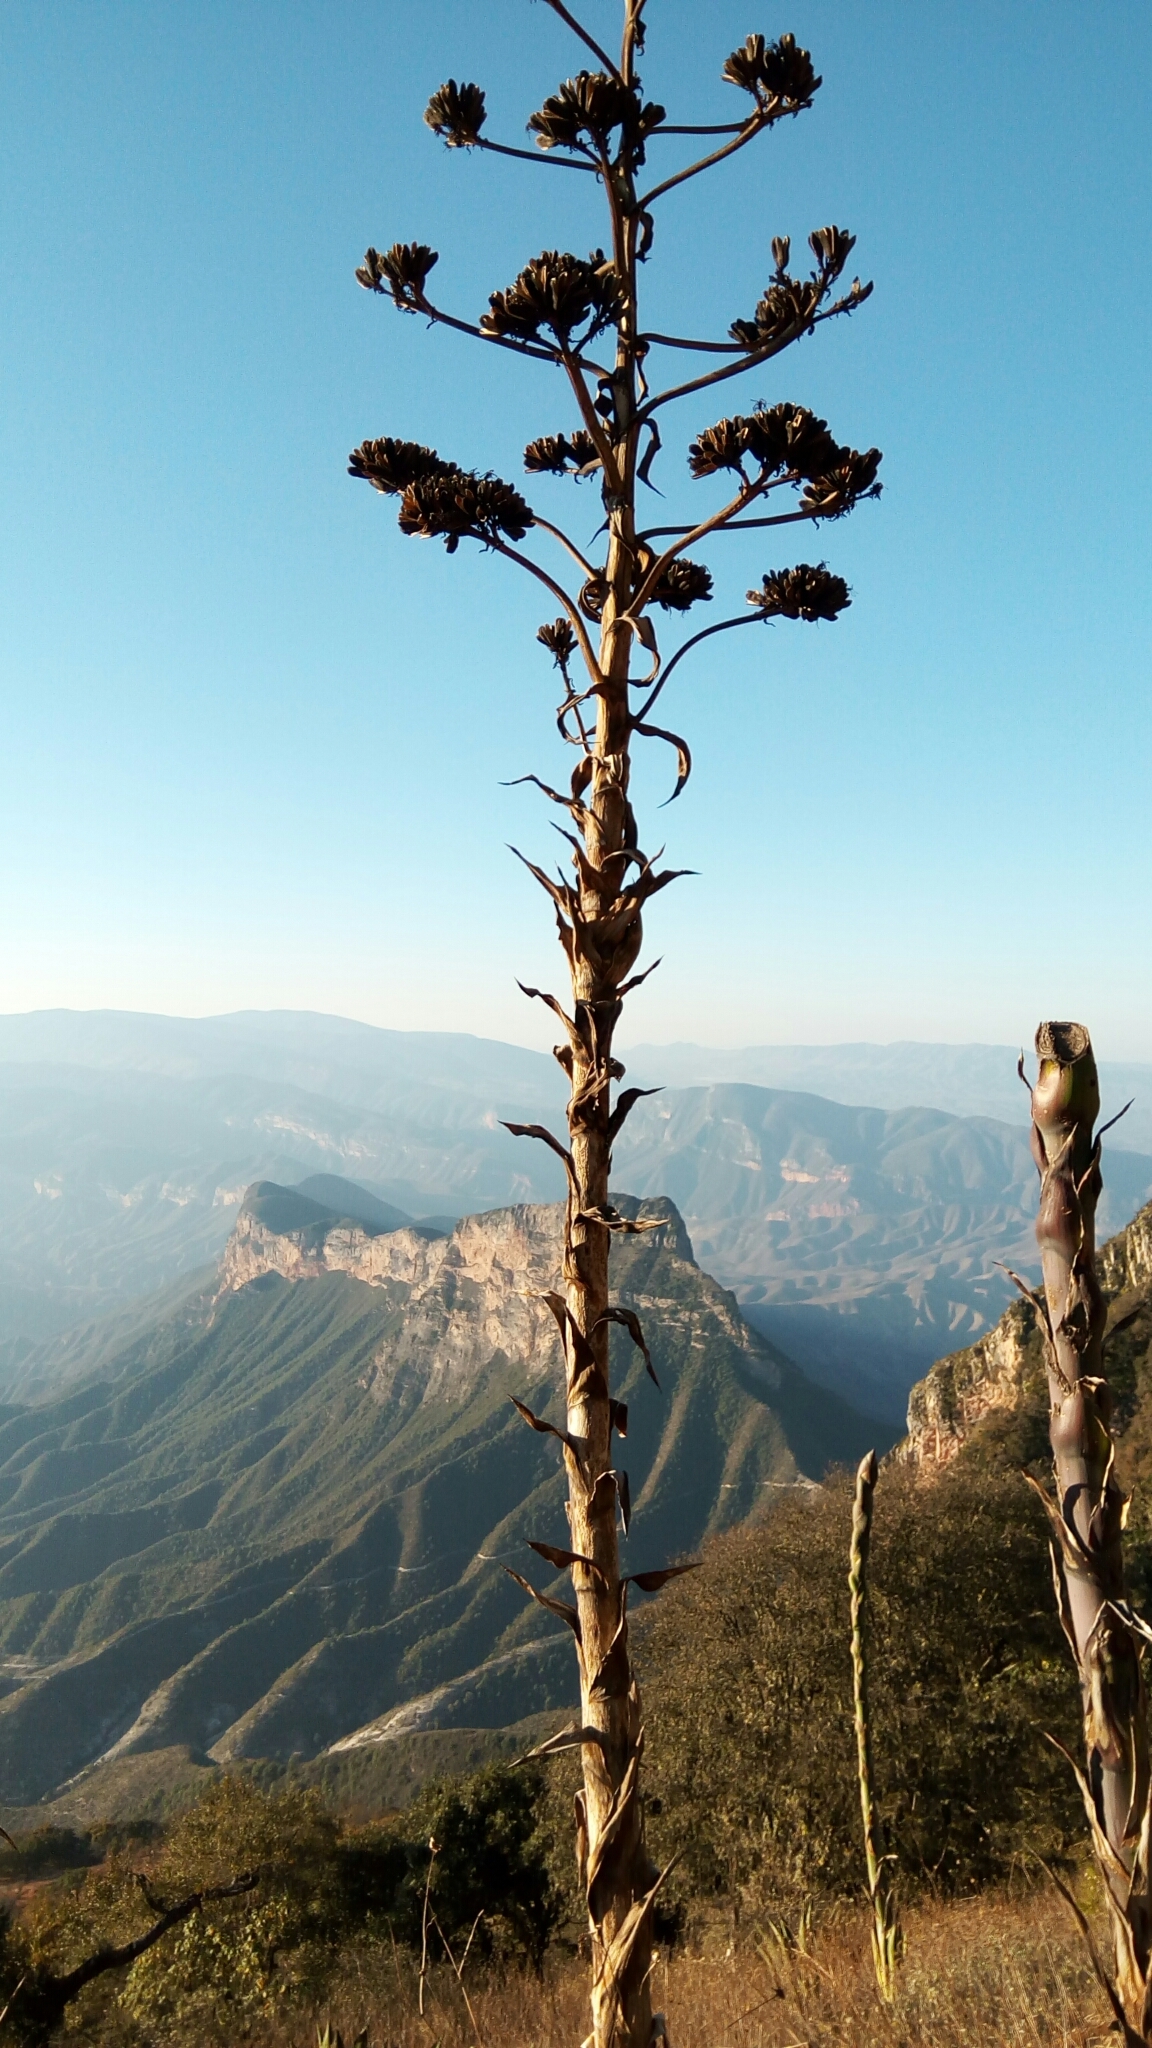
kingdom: Plantae
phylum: Tracheophyta
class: Liliopsida
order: Asparagales
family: Asparagaceae
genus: Agave
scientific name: Agave americana
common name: Centuryplant
